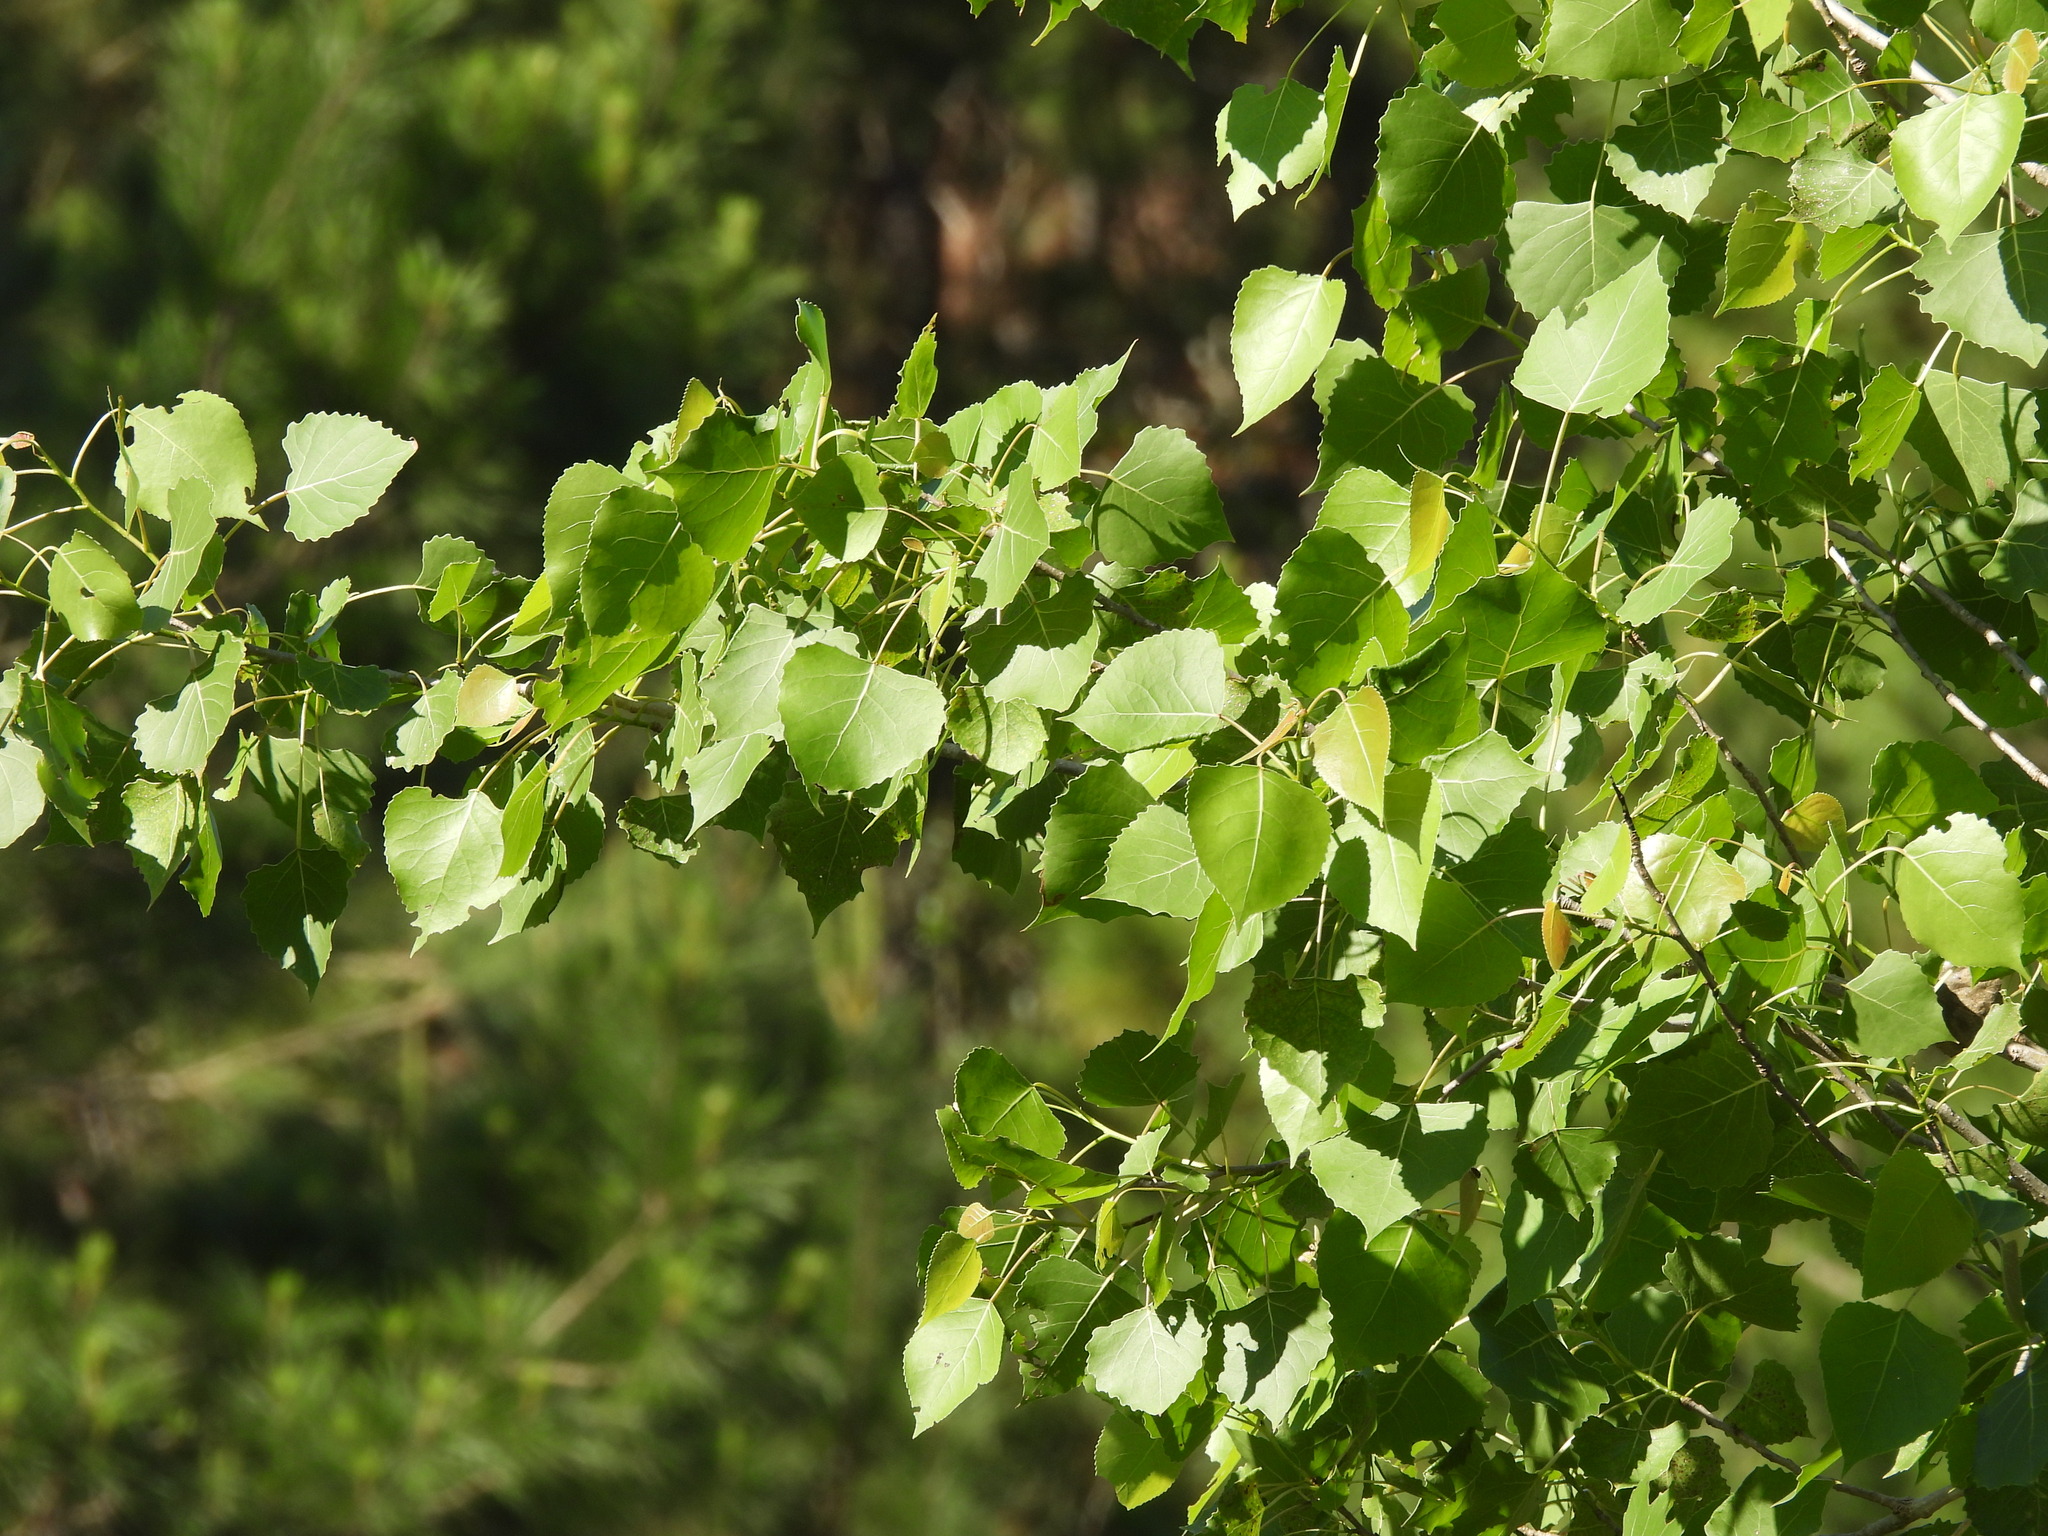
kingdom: Plantae
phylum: Tracheophyta
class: Magnoliopsida
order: Malpighiales
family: Salicaceae
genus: Populus
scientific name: Populus deltoides
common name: Eastern cottonwood
